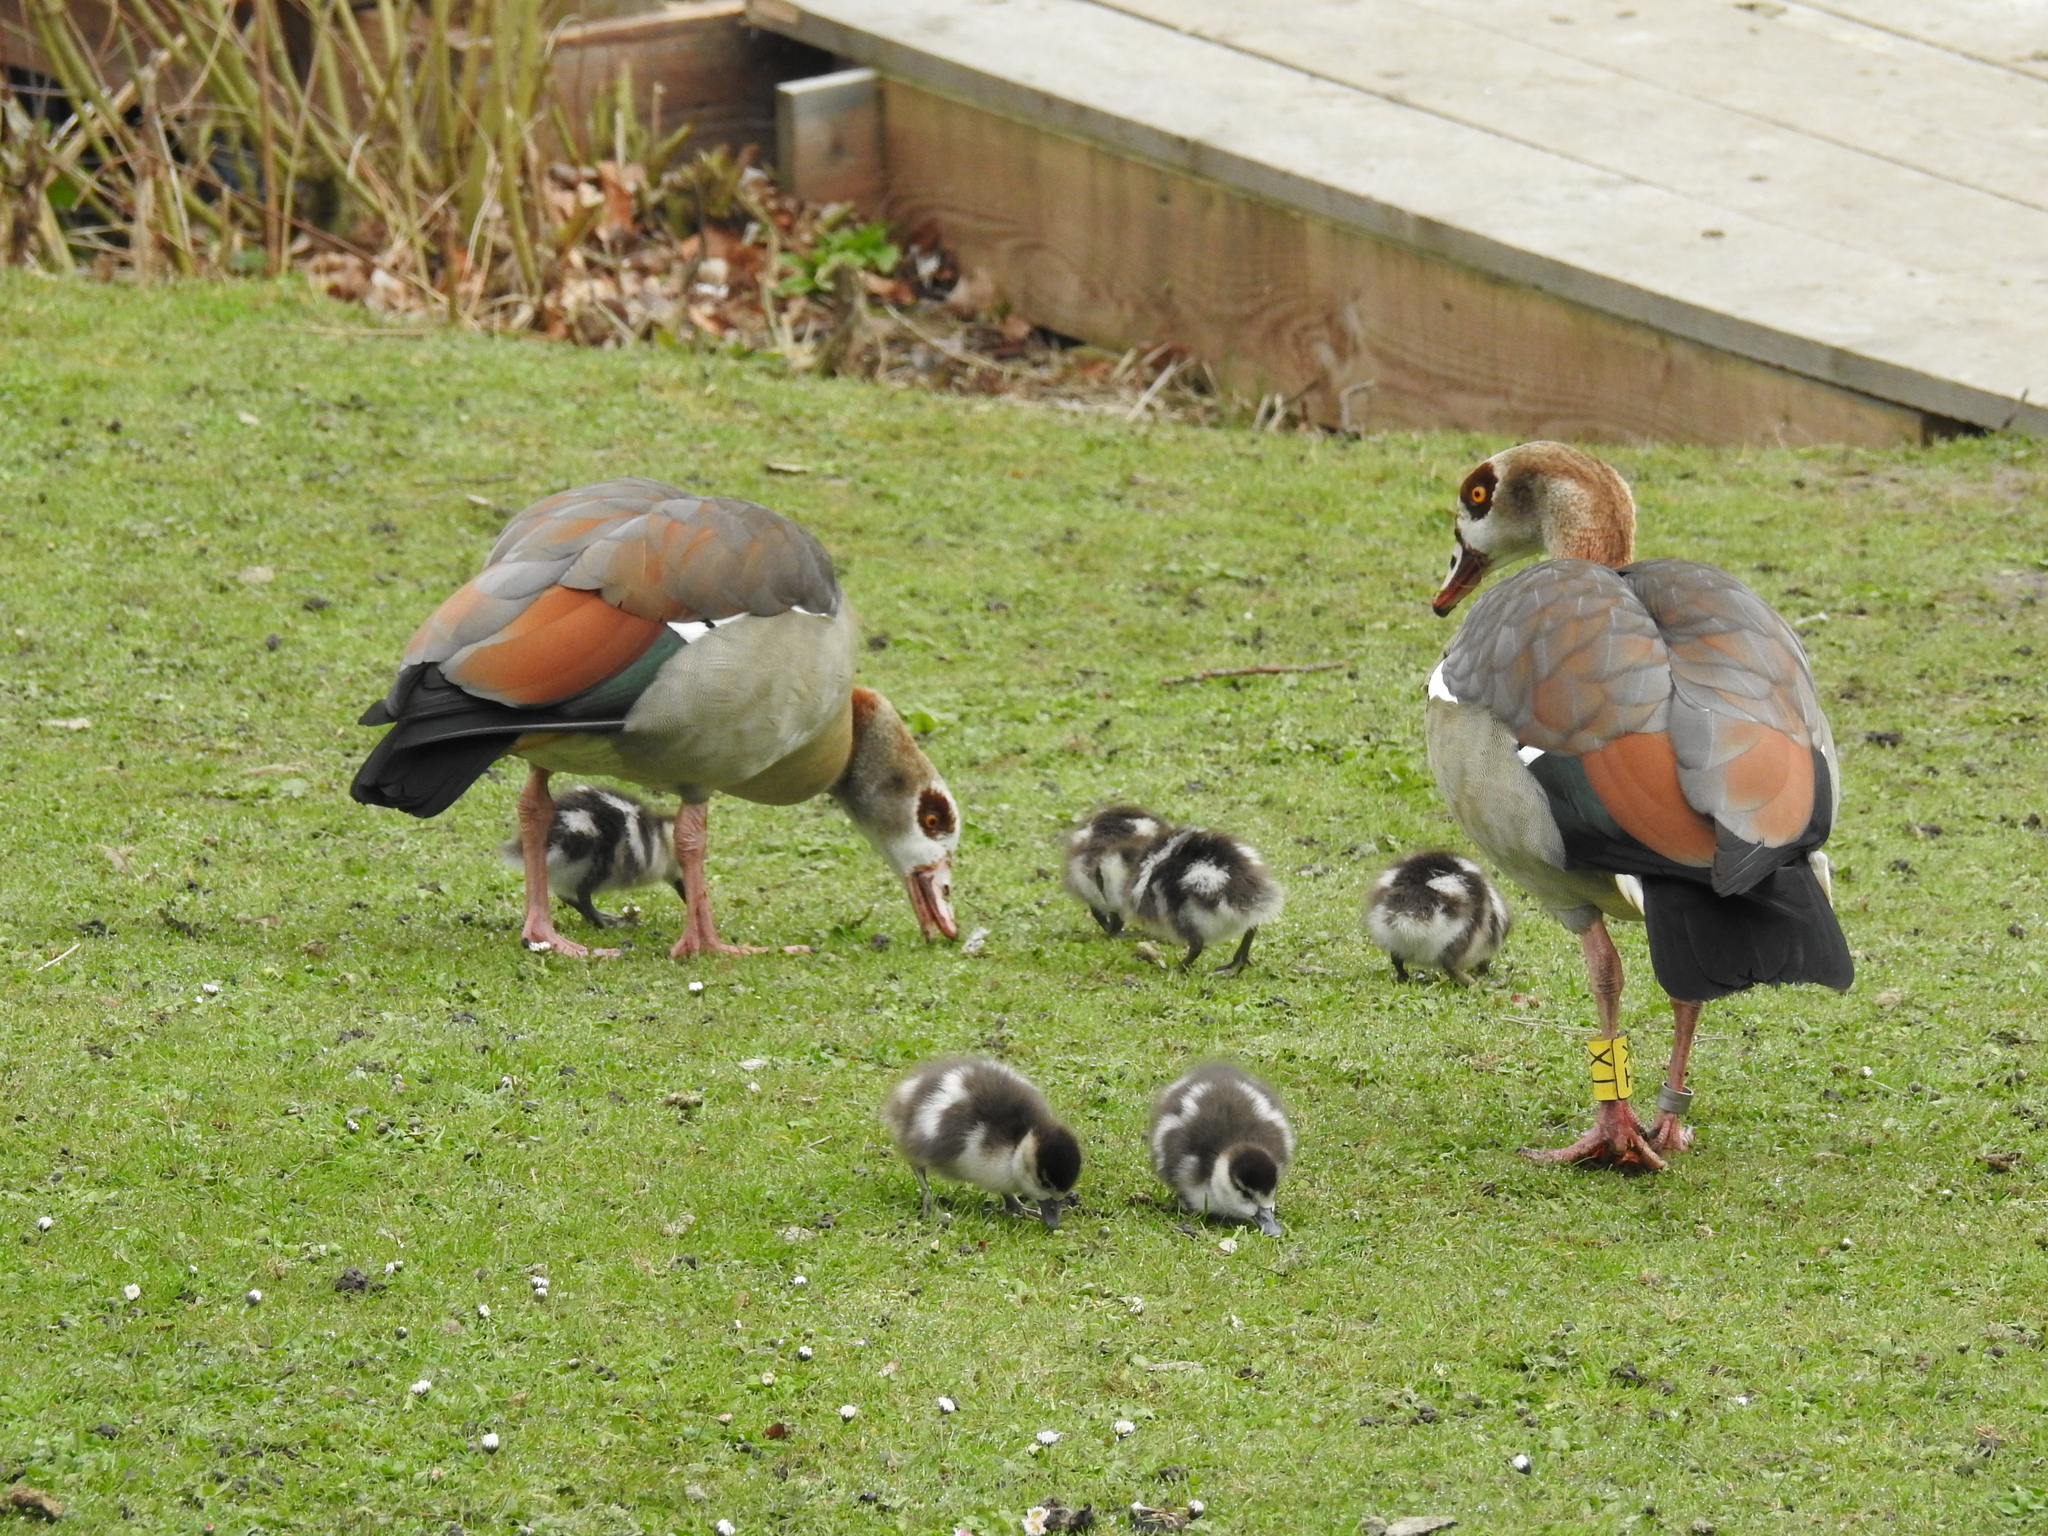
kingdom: Animalia
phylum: Chordata
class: Aves
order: Anseriformes
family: Anatidae
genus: Alopochen
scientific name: Alopochen aegyptiaca
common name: Egyptian goose
